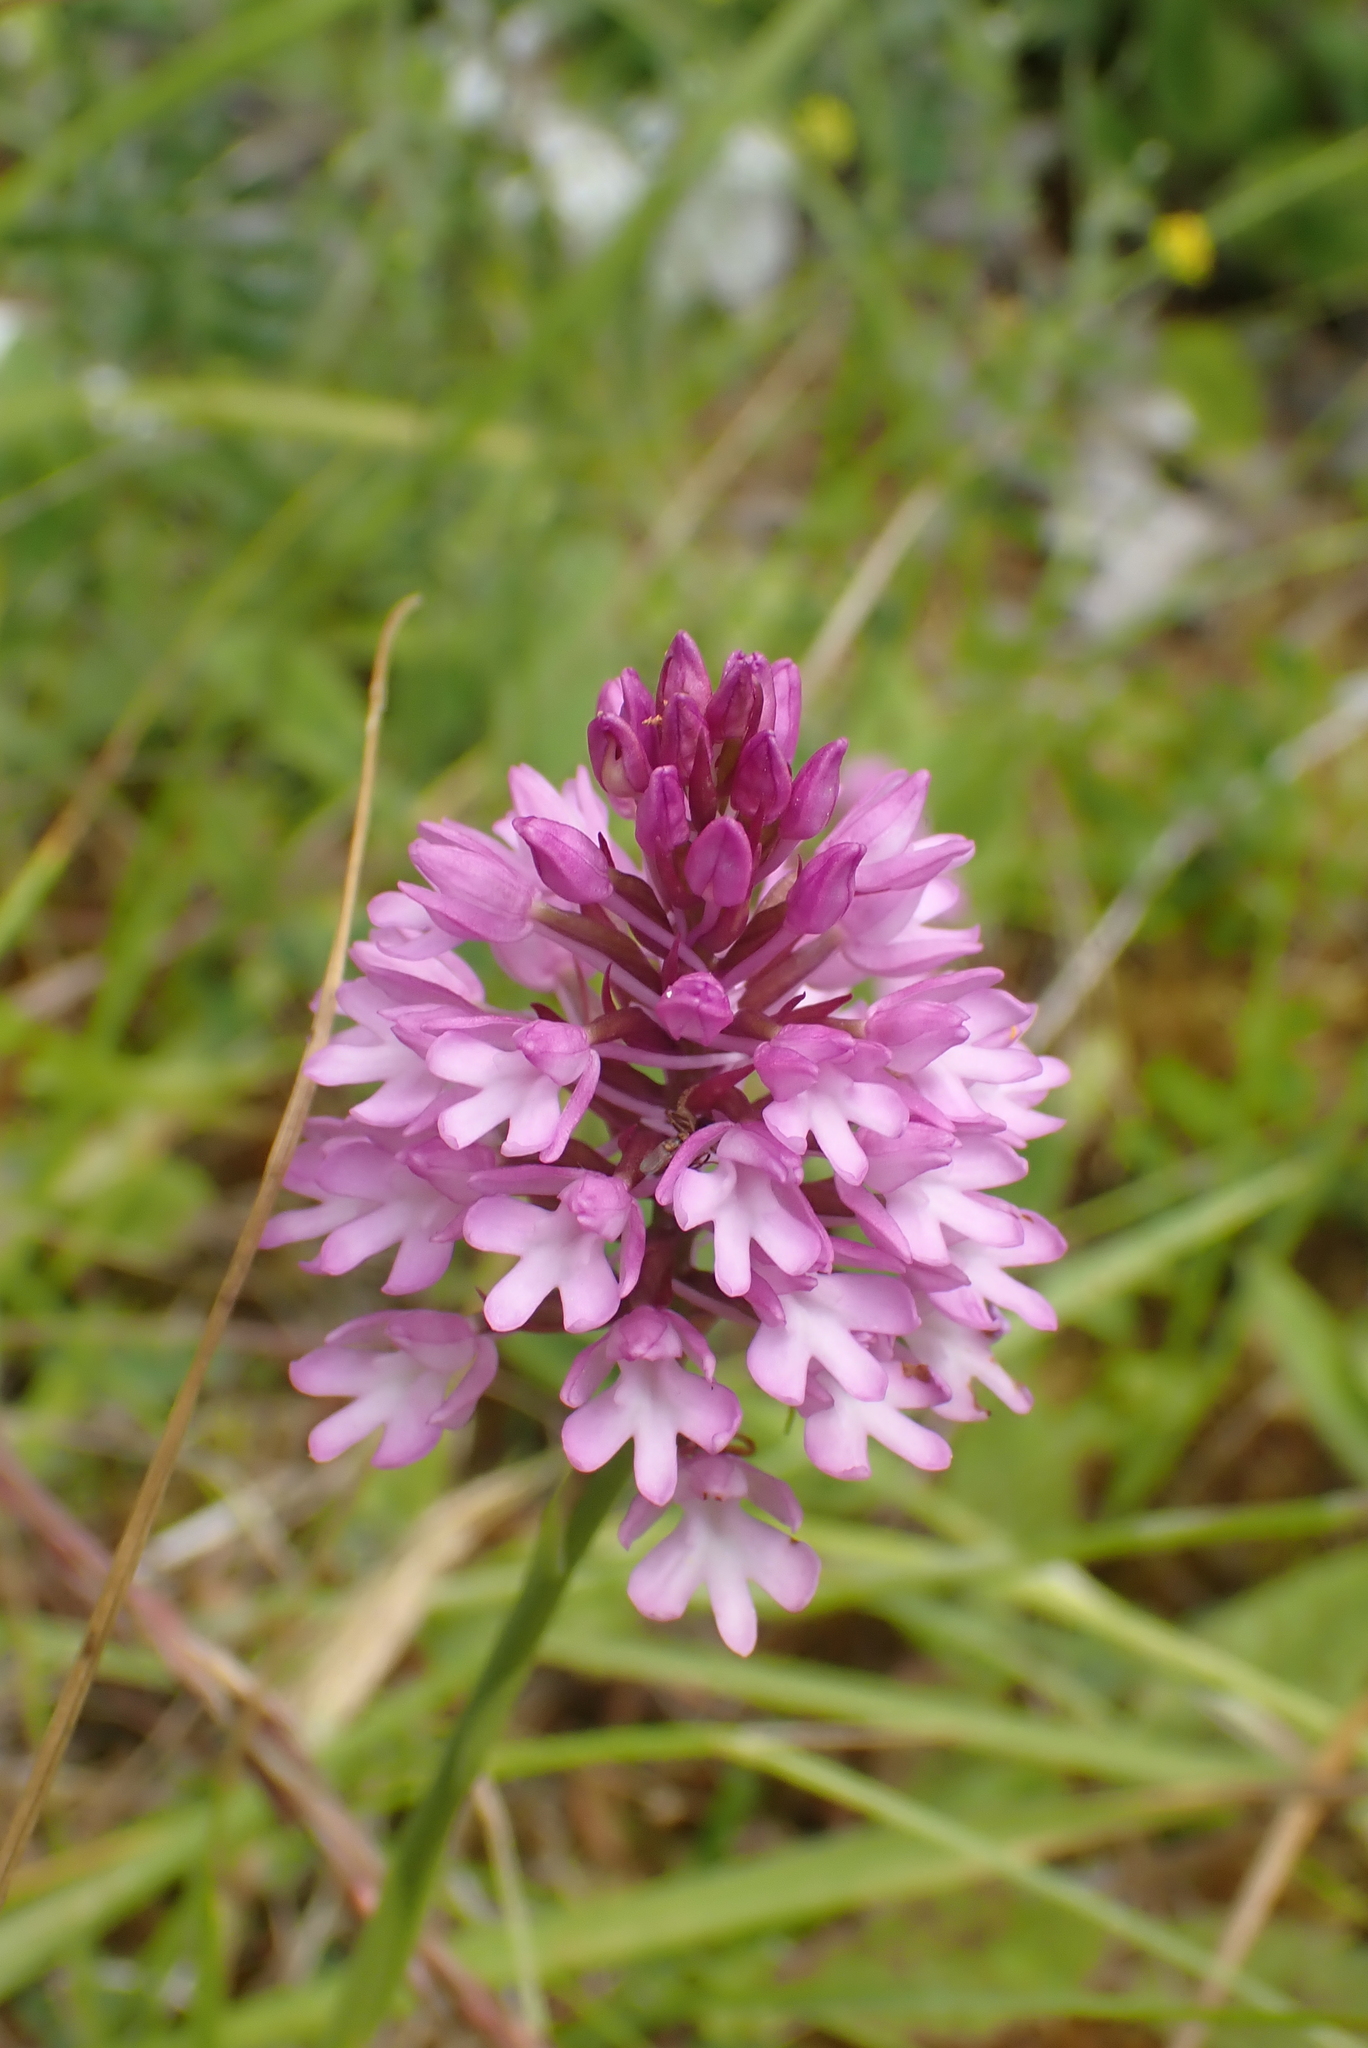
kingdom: Plantae
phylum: Tracheophyta
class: Liliopsida
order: Asparagales
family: Orchidaceae
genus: Anacamptis
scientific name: Anacamptis pyramidalis
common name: Pyramidal orchid
